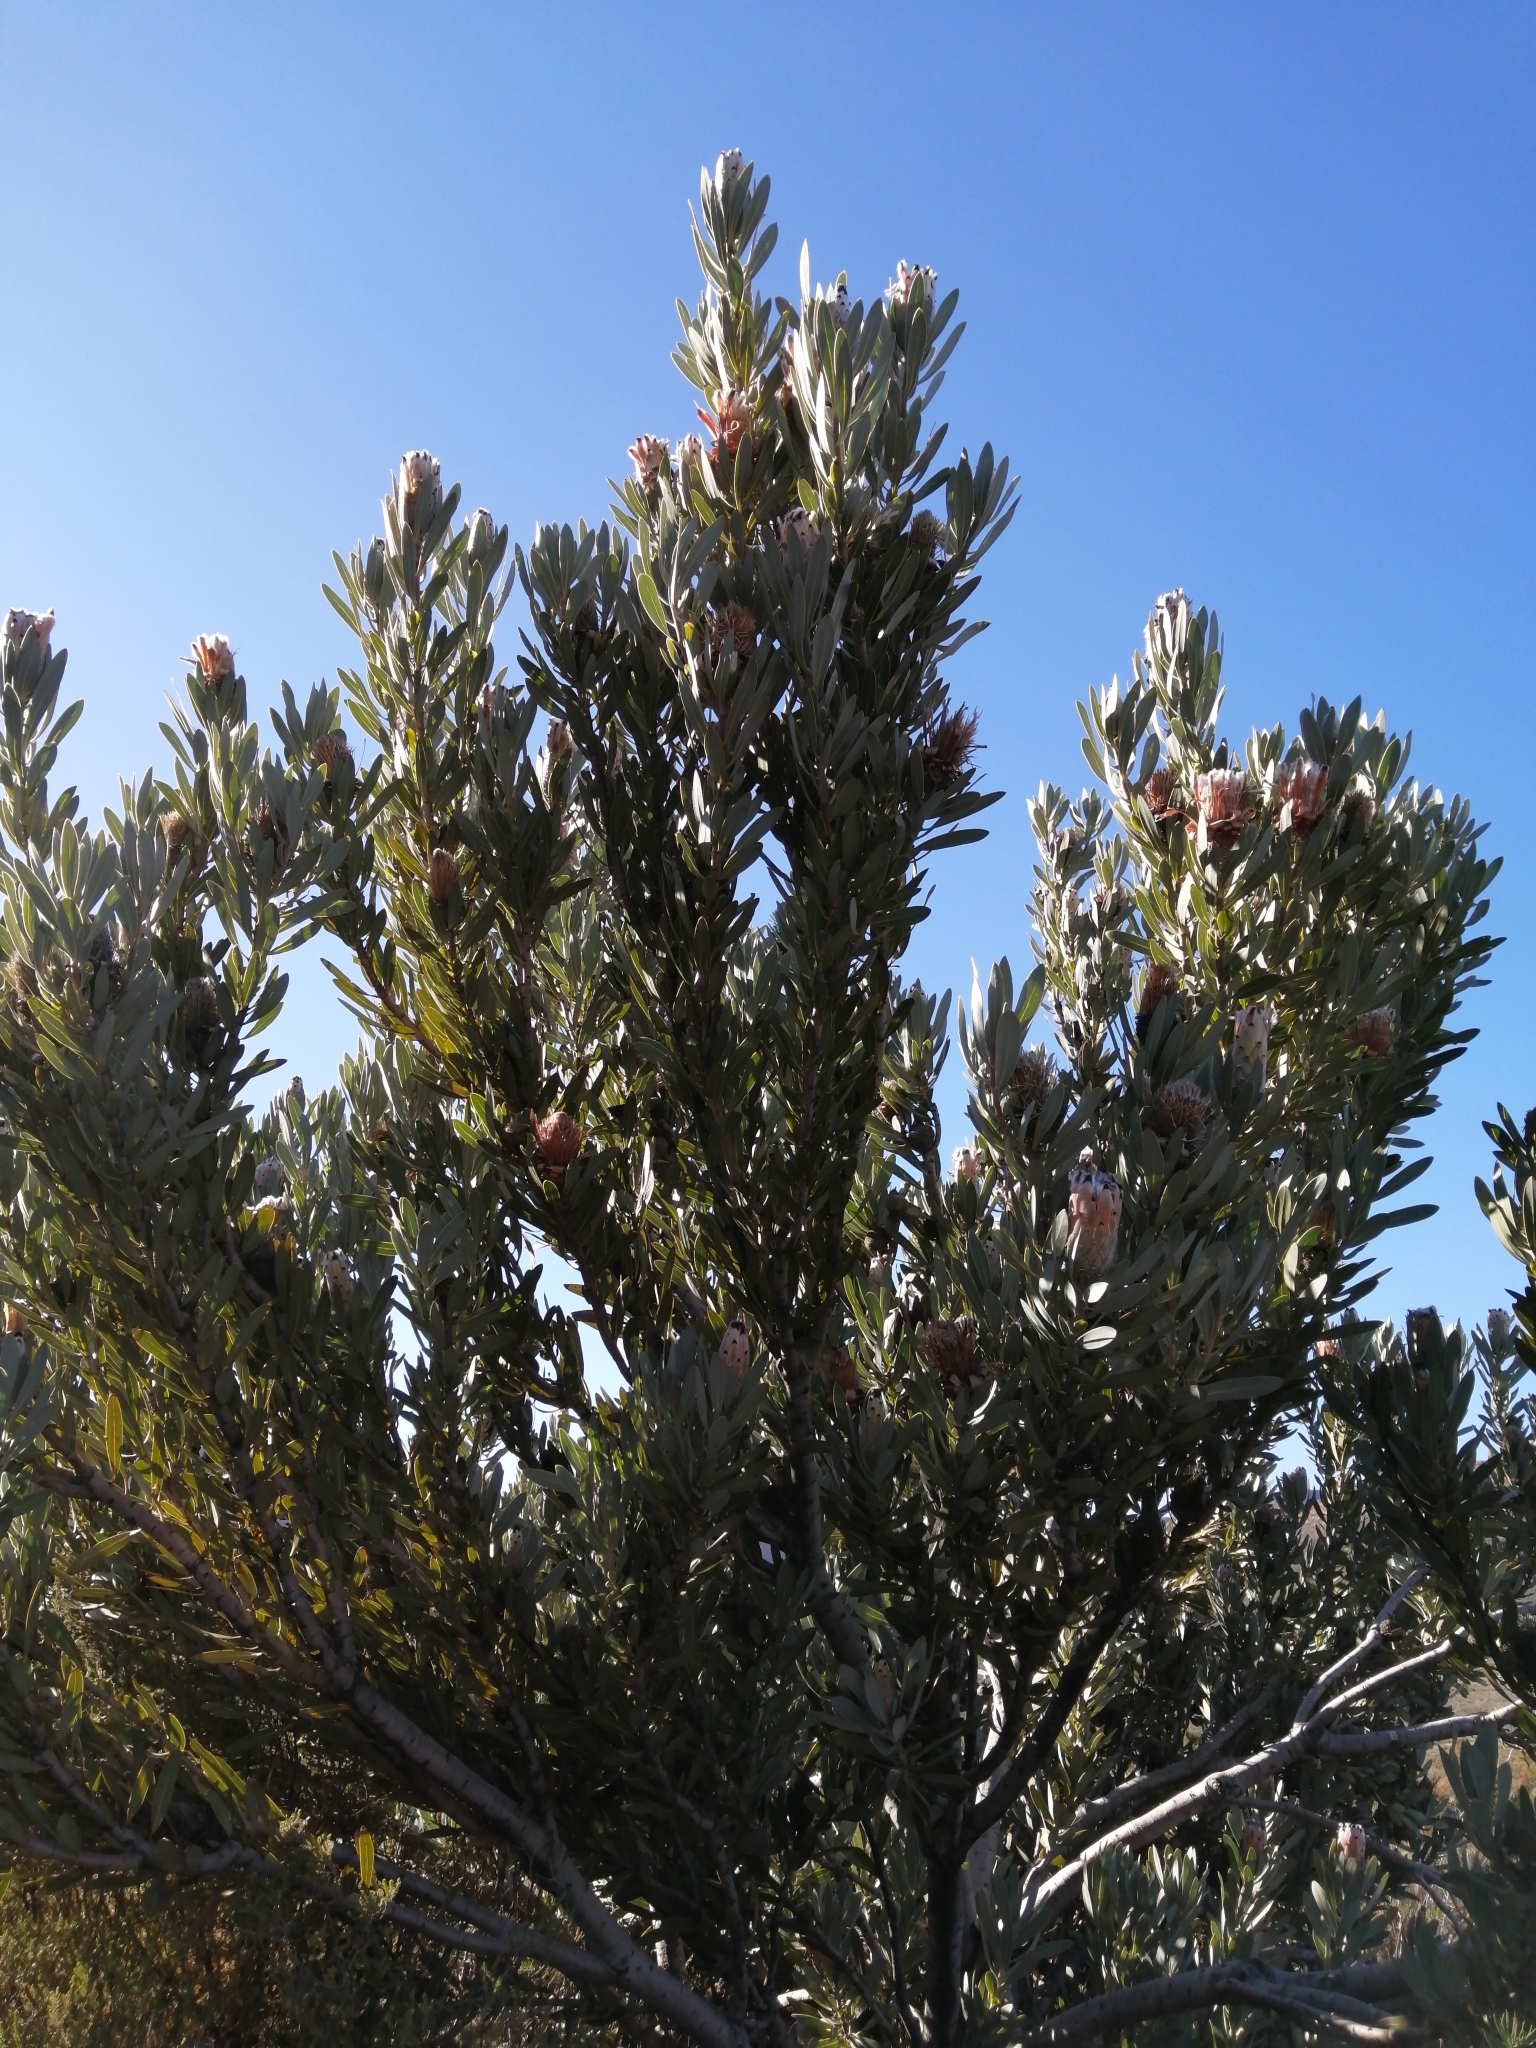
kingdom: Plantae
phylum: Tracheophyta
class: Magnoliopsida
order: Proteales
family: Proteaceae
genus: Protea
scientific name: Protea laurifolia
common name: Grey-leaf sugarbsh
